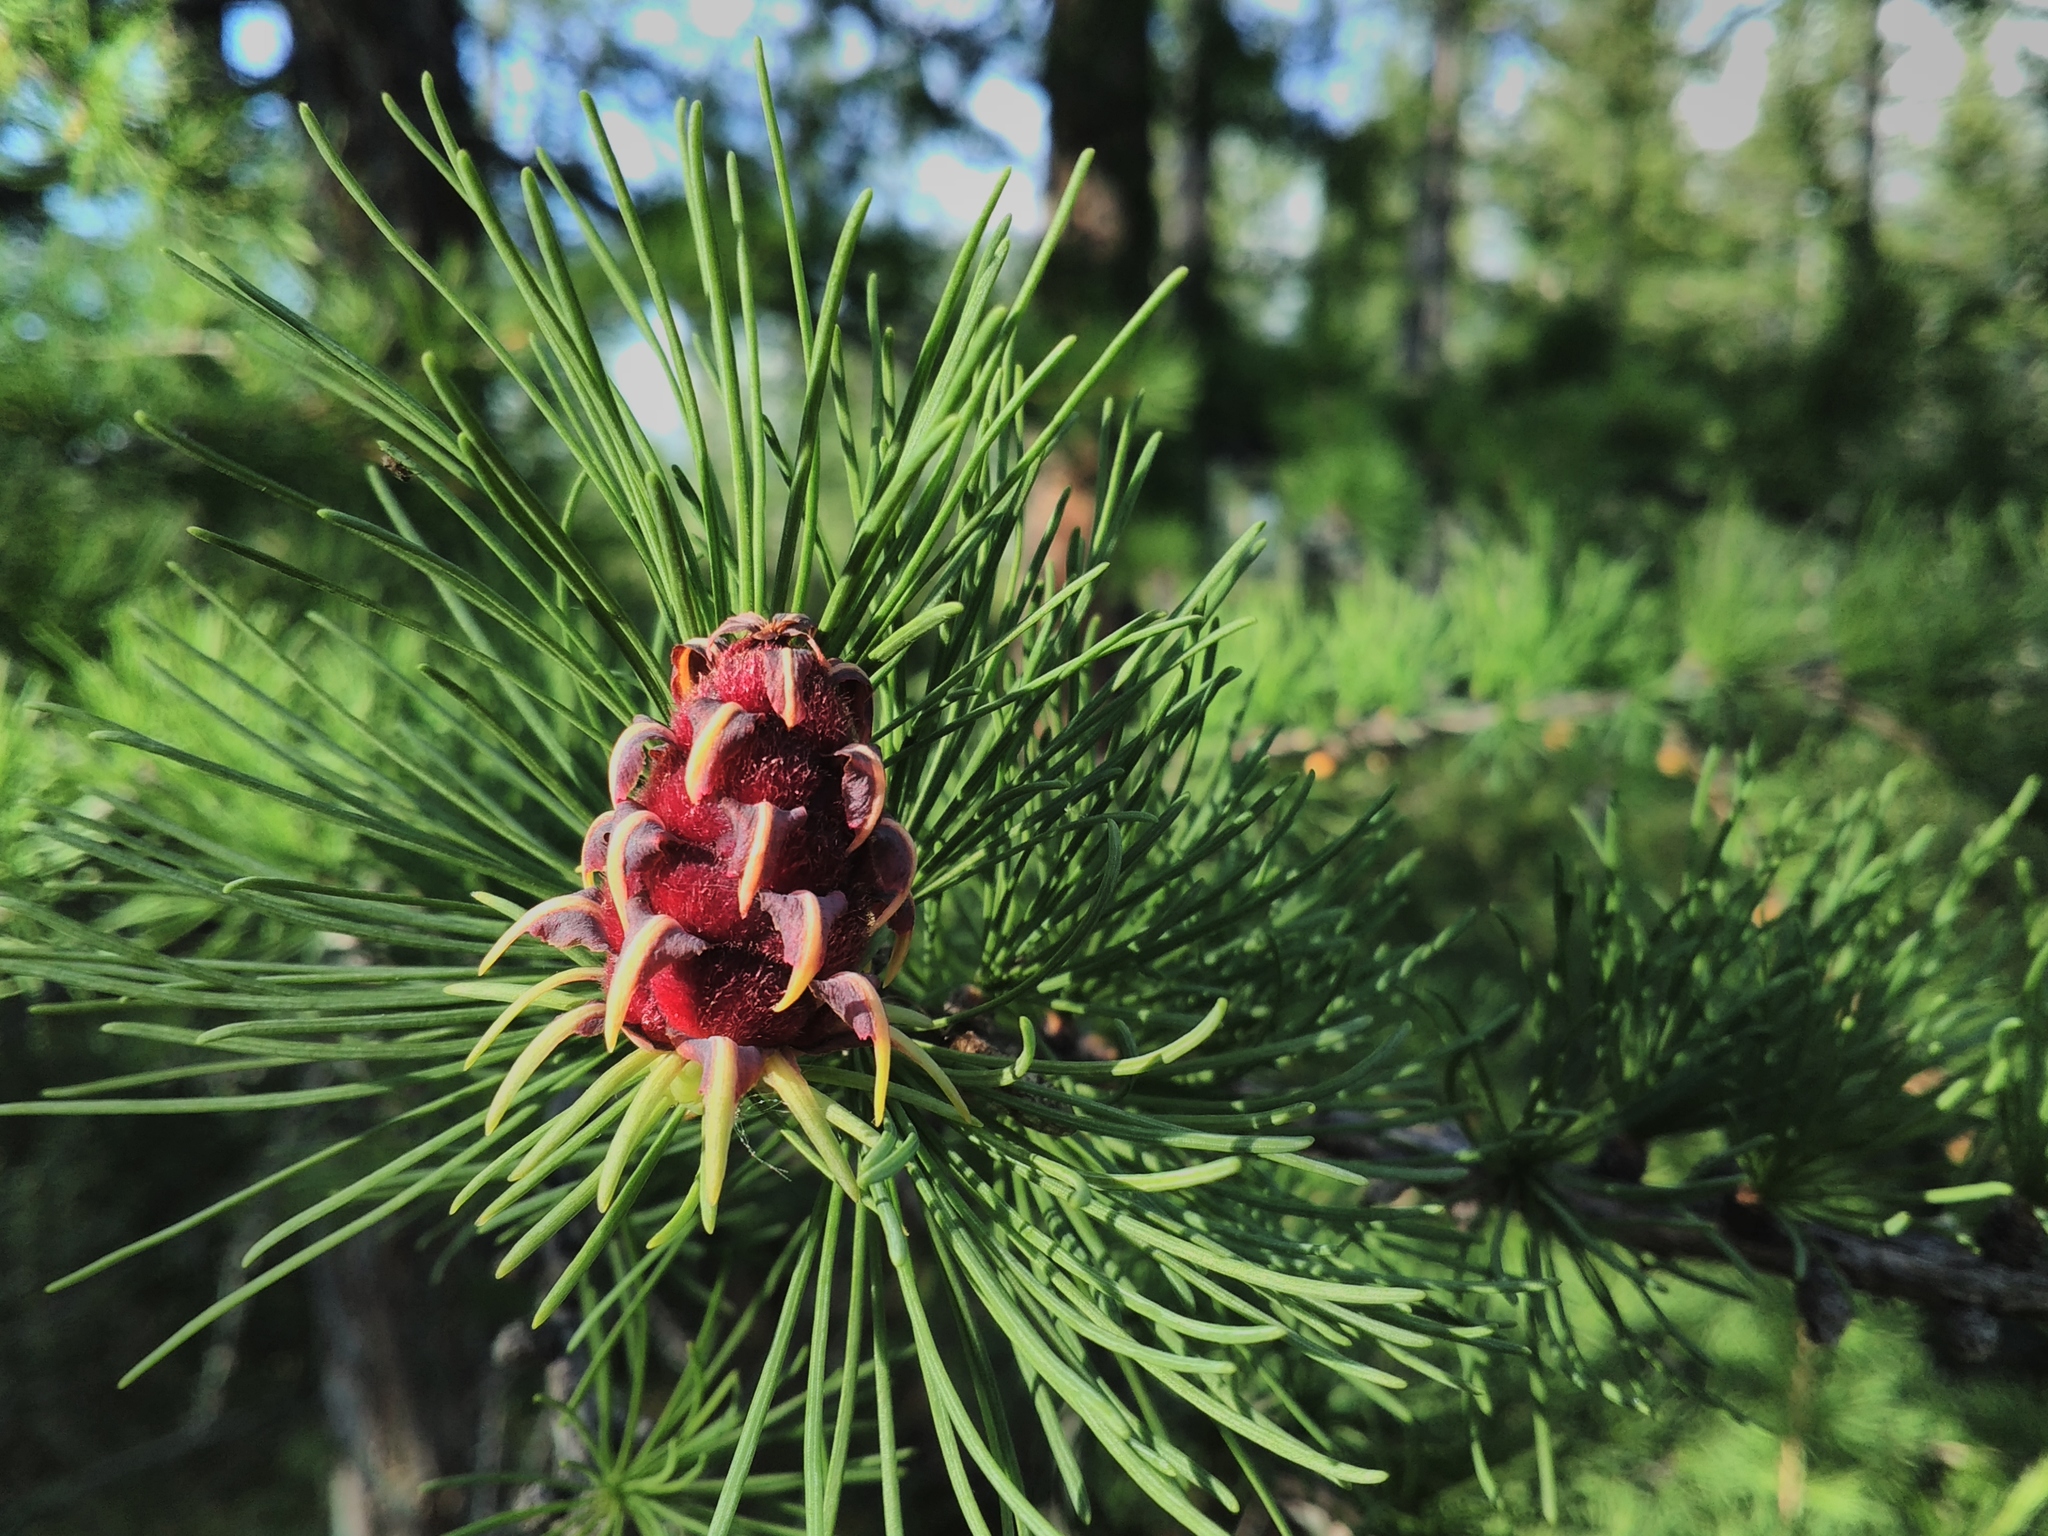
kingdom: Plantae
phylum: Tracheophyta
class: Pinopsida
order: Pinales
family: Pinaceae
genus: Larix
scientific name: Larix sibirica
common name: Siberian larch
